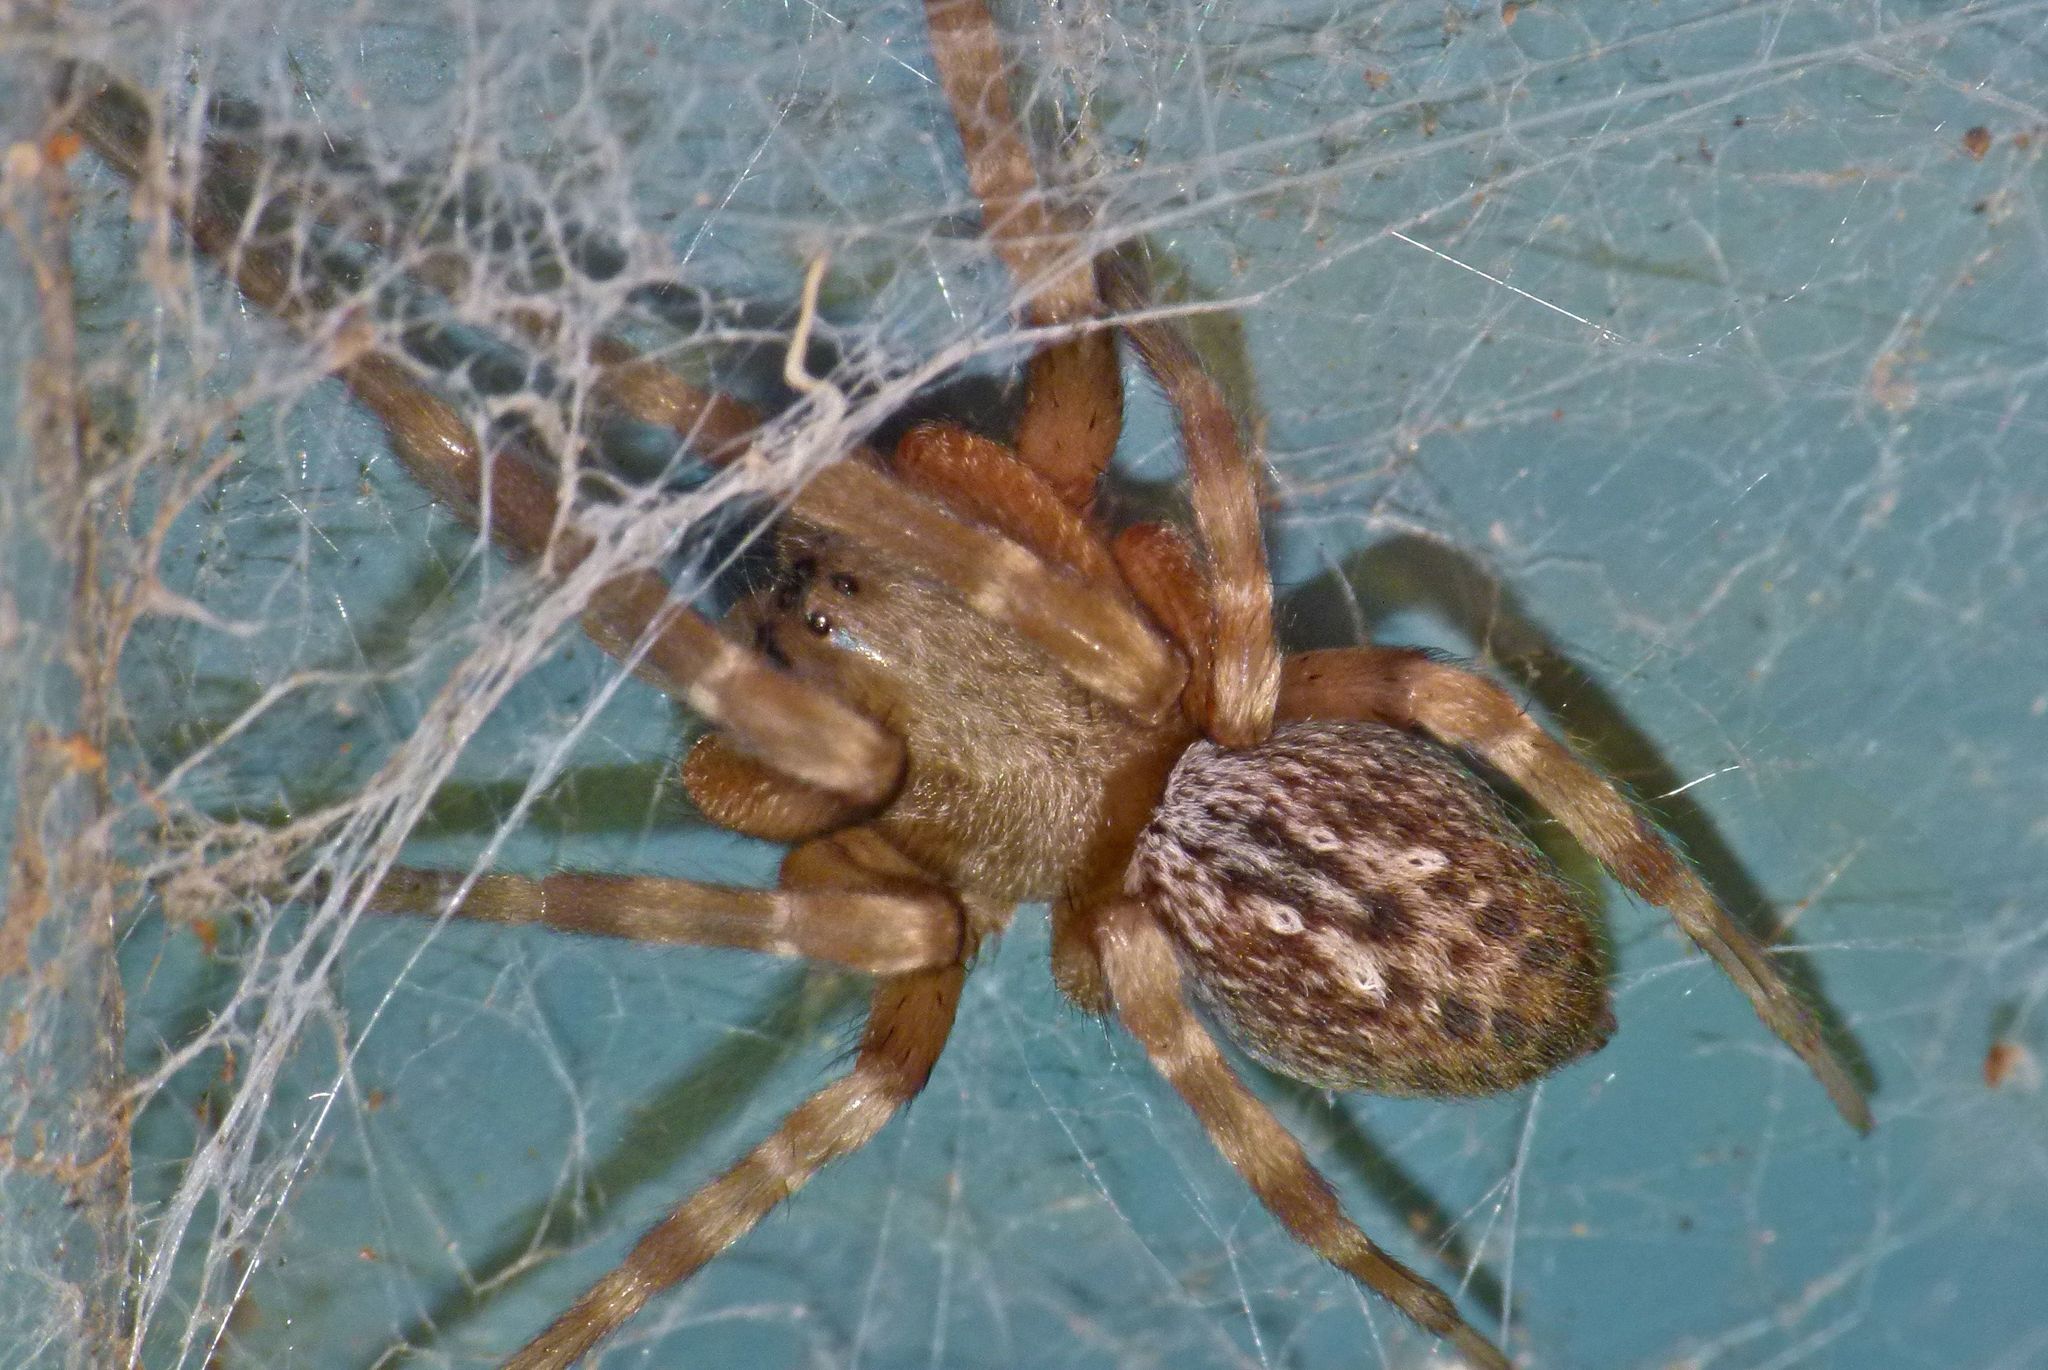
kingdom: Animalia
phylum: Arthropoda
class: Arachnida
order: Araneae
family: Desidae
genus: Badumna
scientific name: Badumna longinqua
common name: Gray house spider
